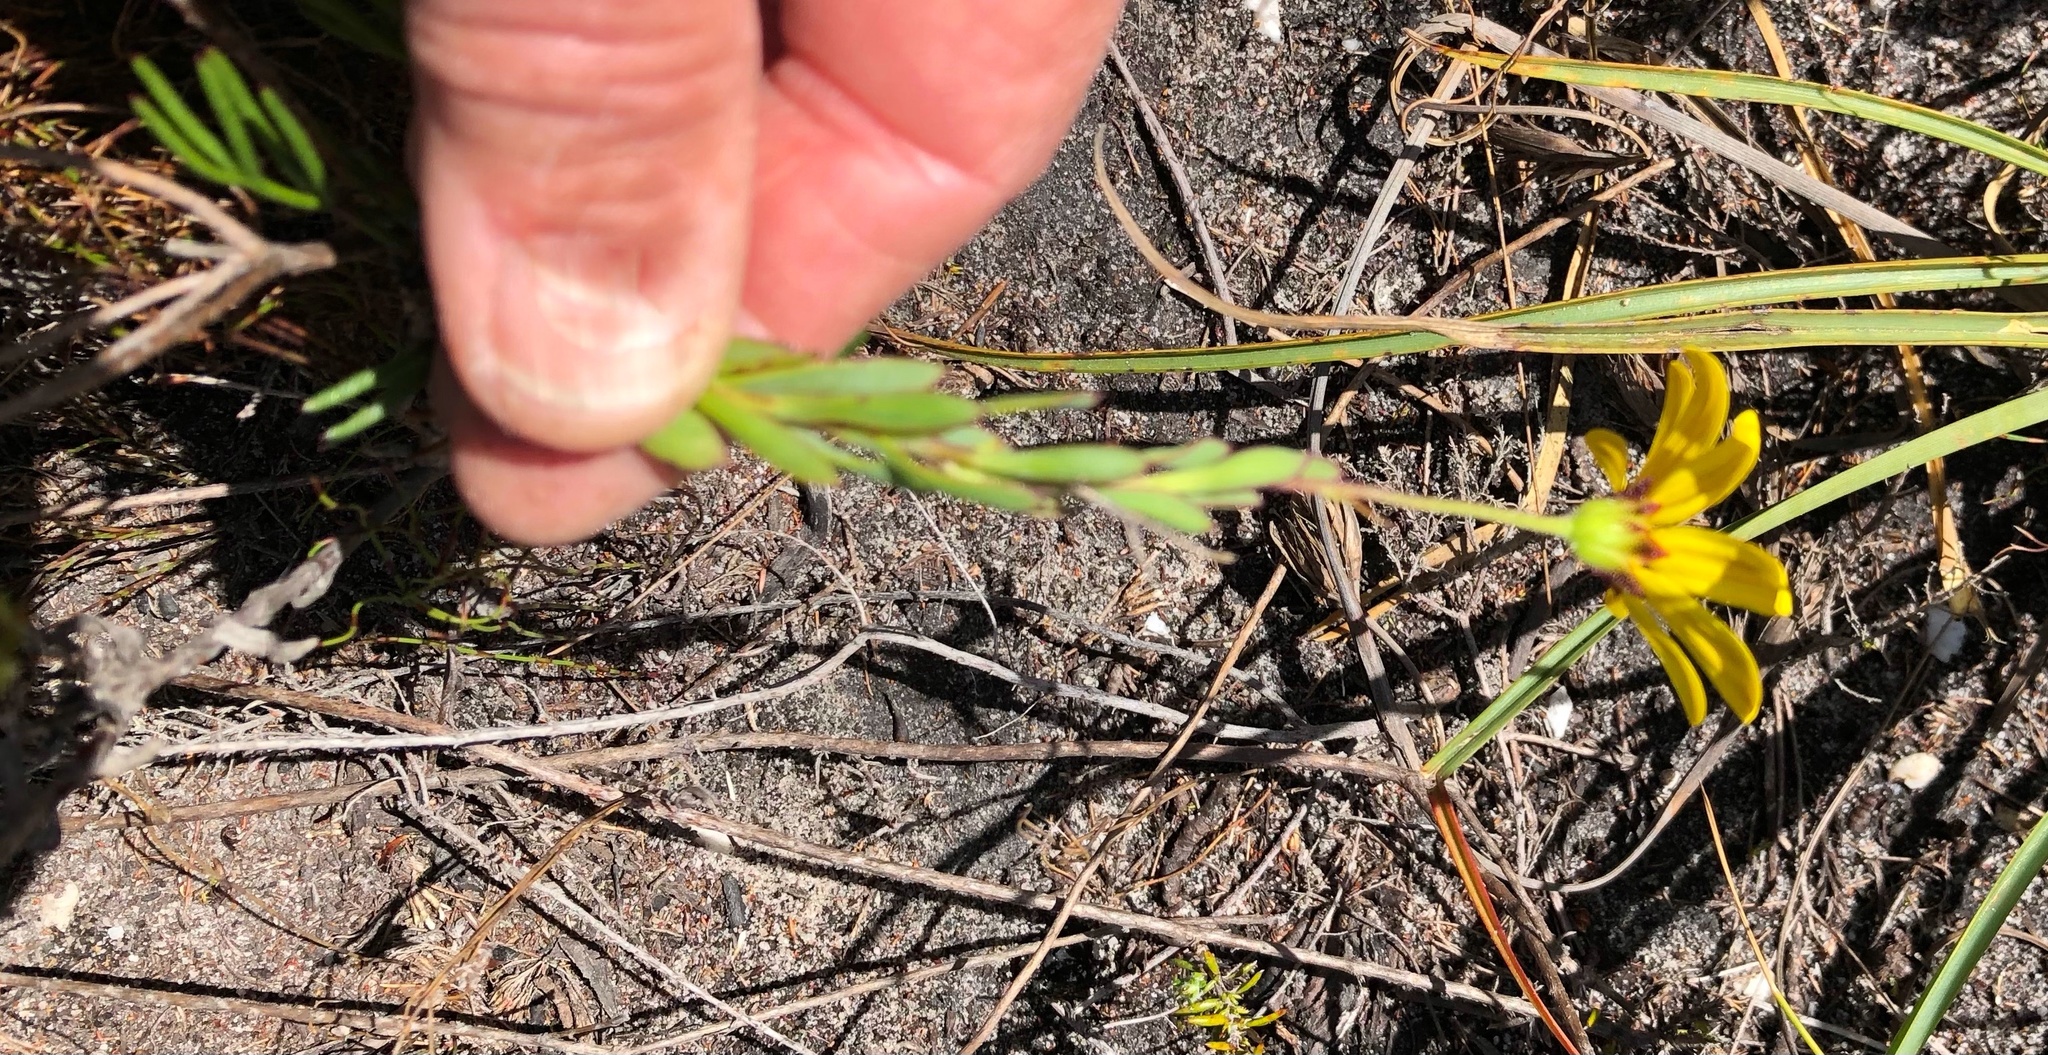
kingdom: Plantae
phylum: Tracheophyta
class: Magnoliopsida
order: Asterales
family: Asteraceae
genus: Osteospermum
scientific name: Osteospermum polygaloides
